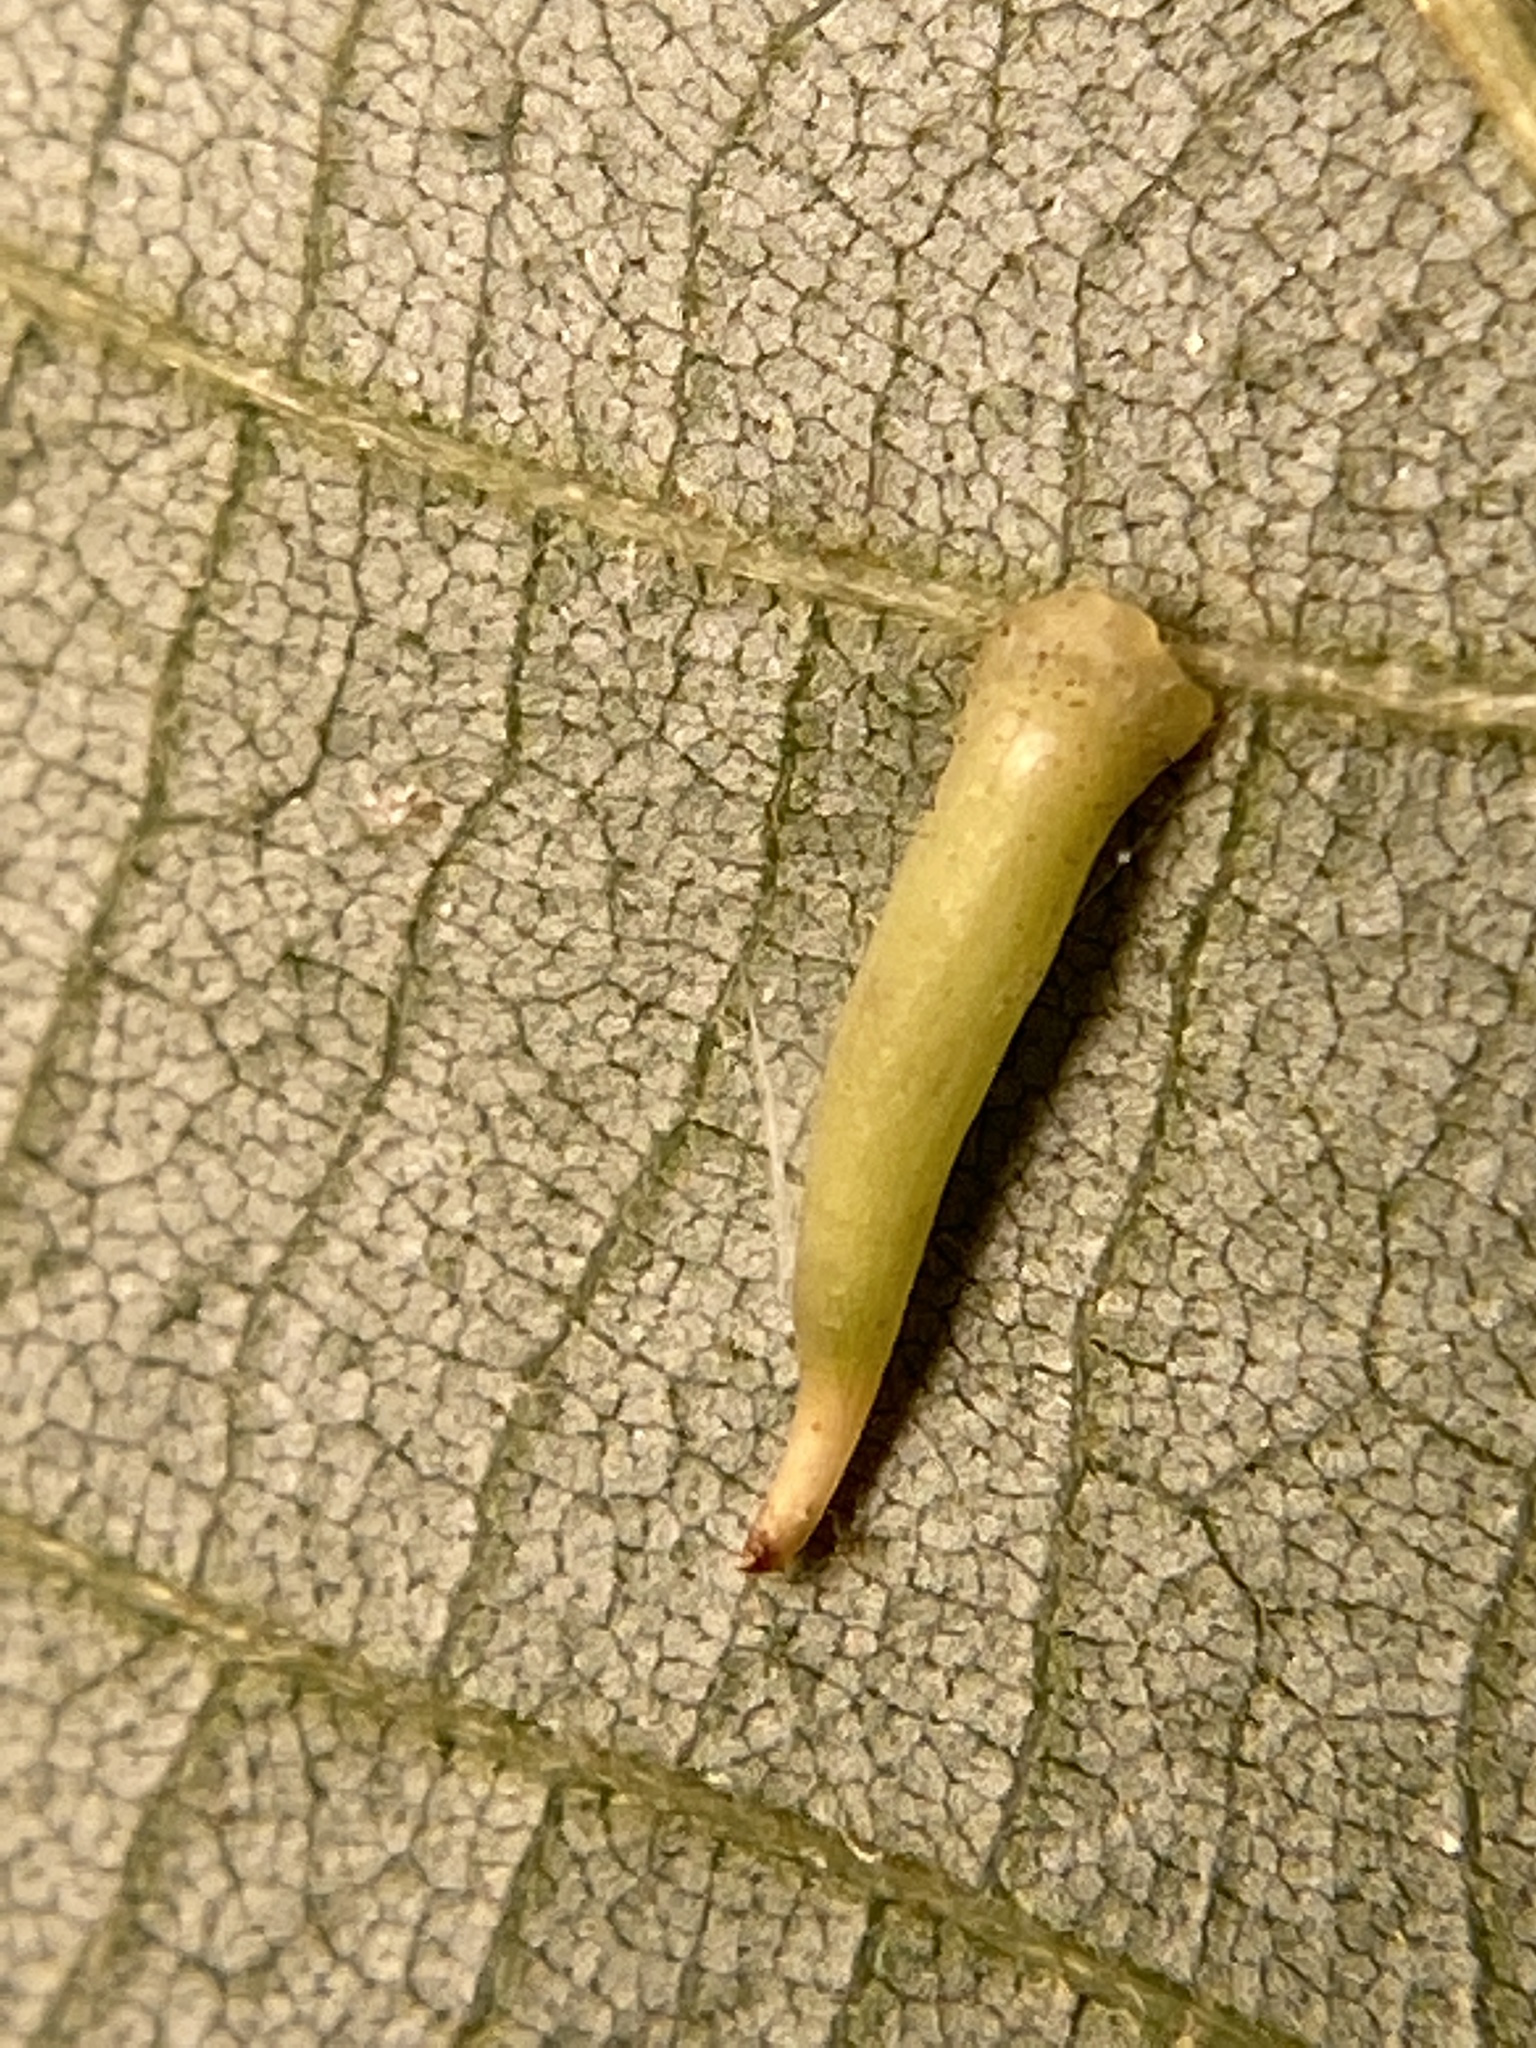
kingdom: Animalia
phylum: Arthropoda
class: Insecta
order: Diptera
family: Cecidomyiidae
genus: Caryomyia
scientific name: Caryomyia
